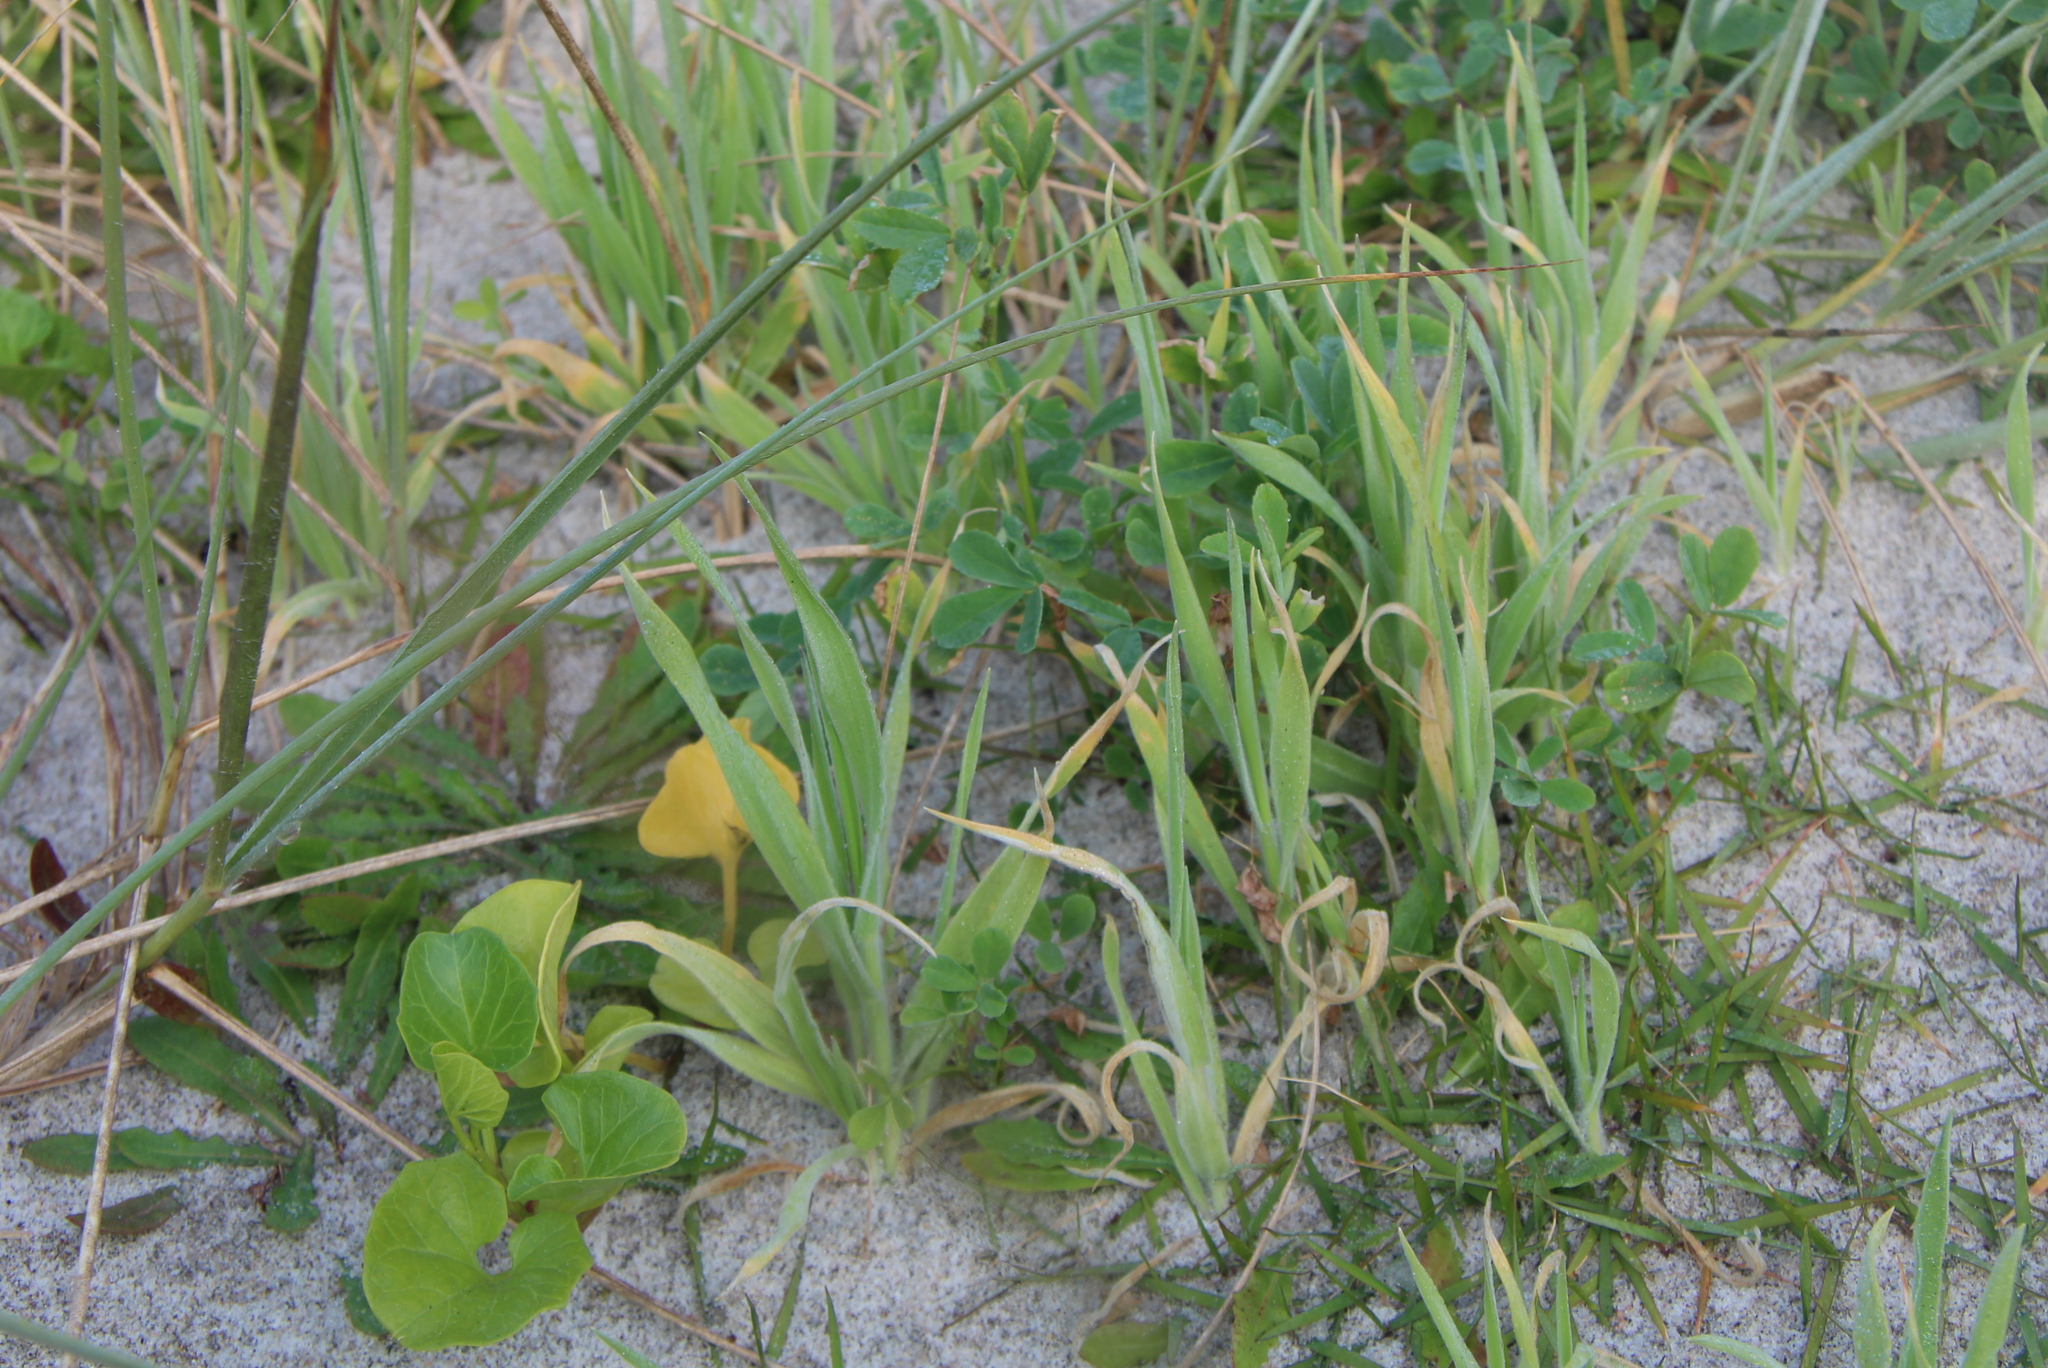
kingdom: Plantae
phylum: Tracheophyta
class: Liliopsida
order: Poales
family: Poaceae
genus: Lagurus
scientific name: Lagurus ovatus
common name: Hare's-tail
